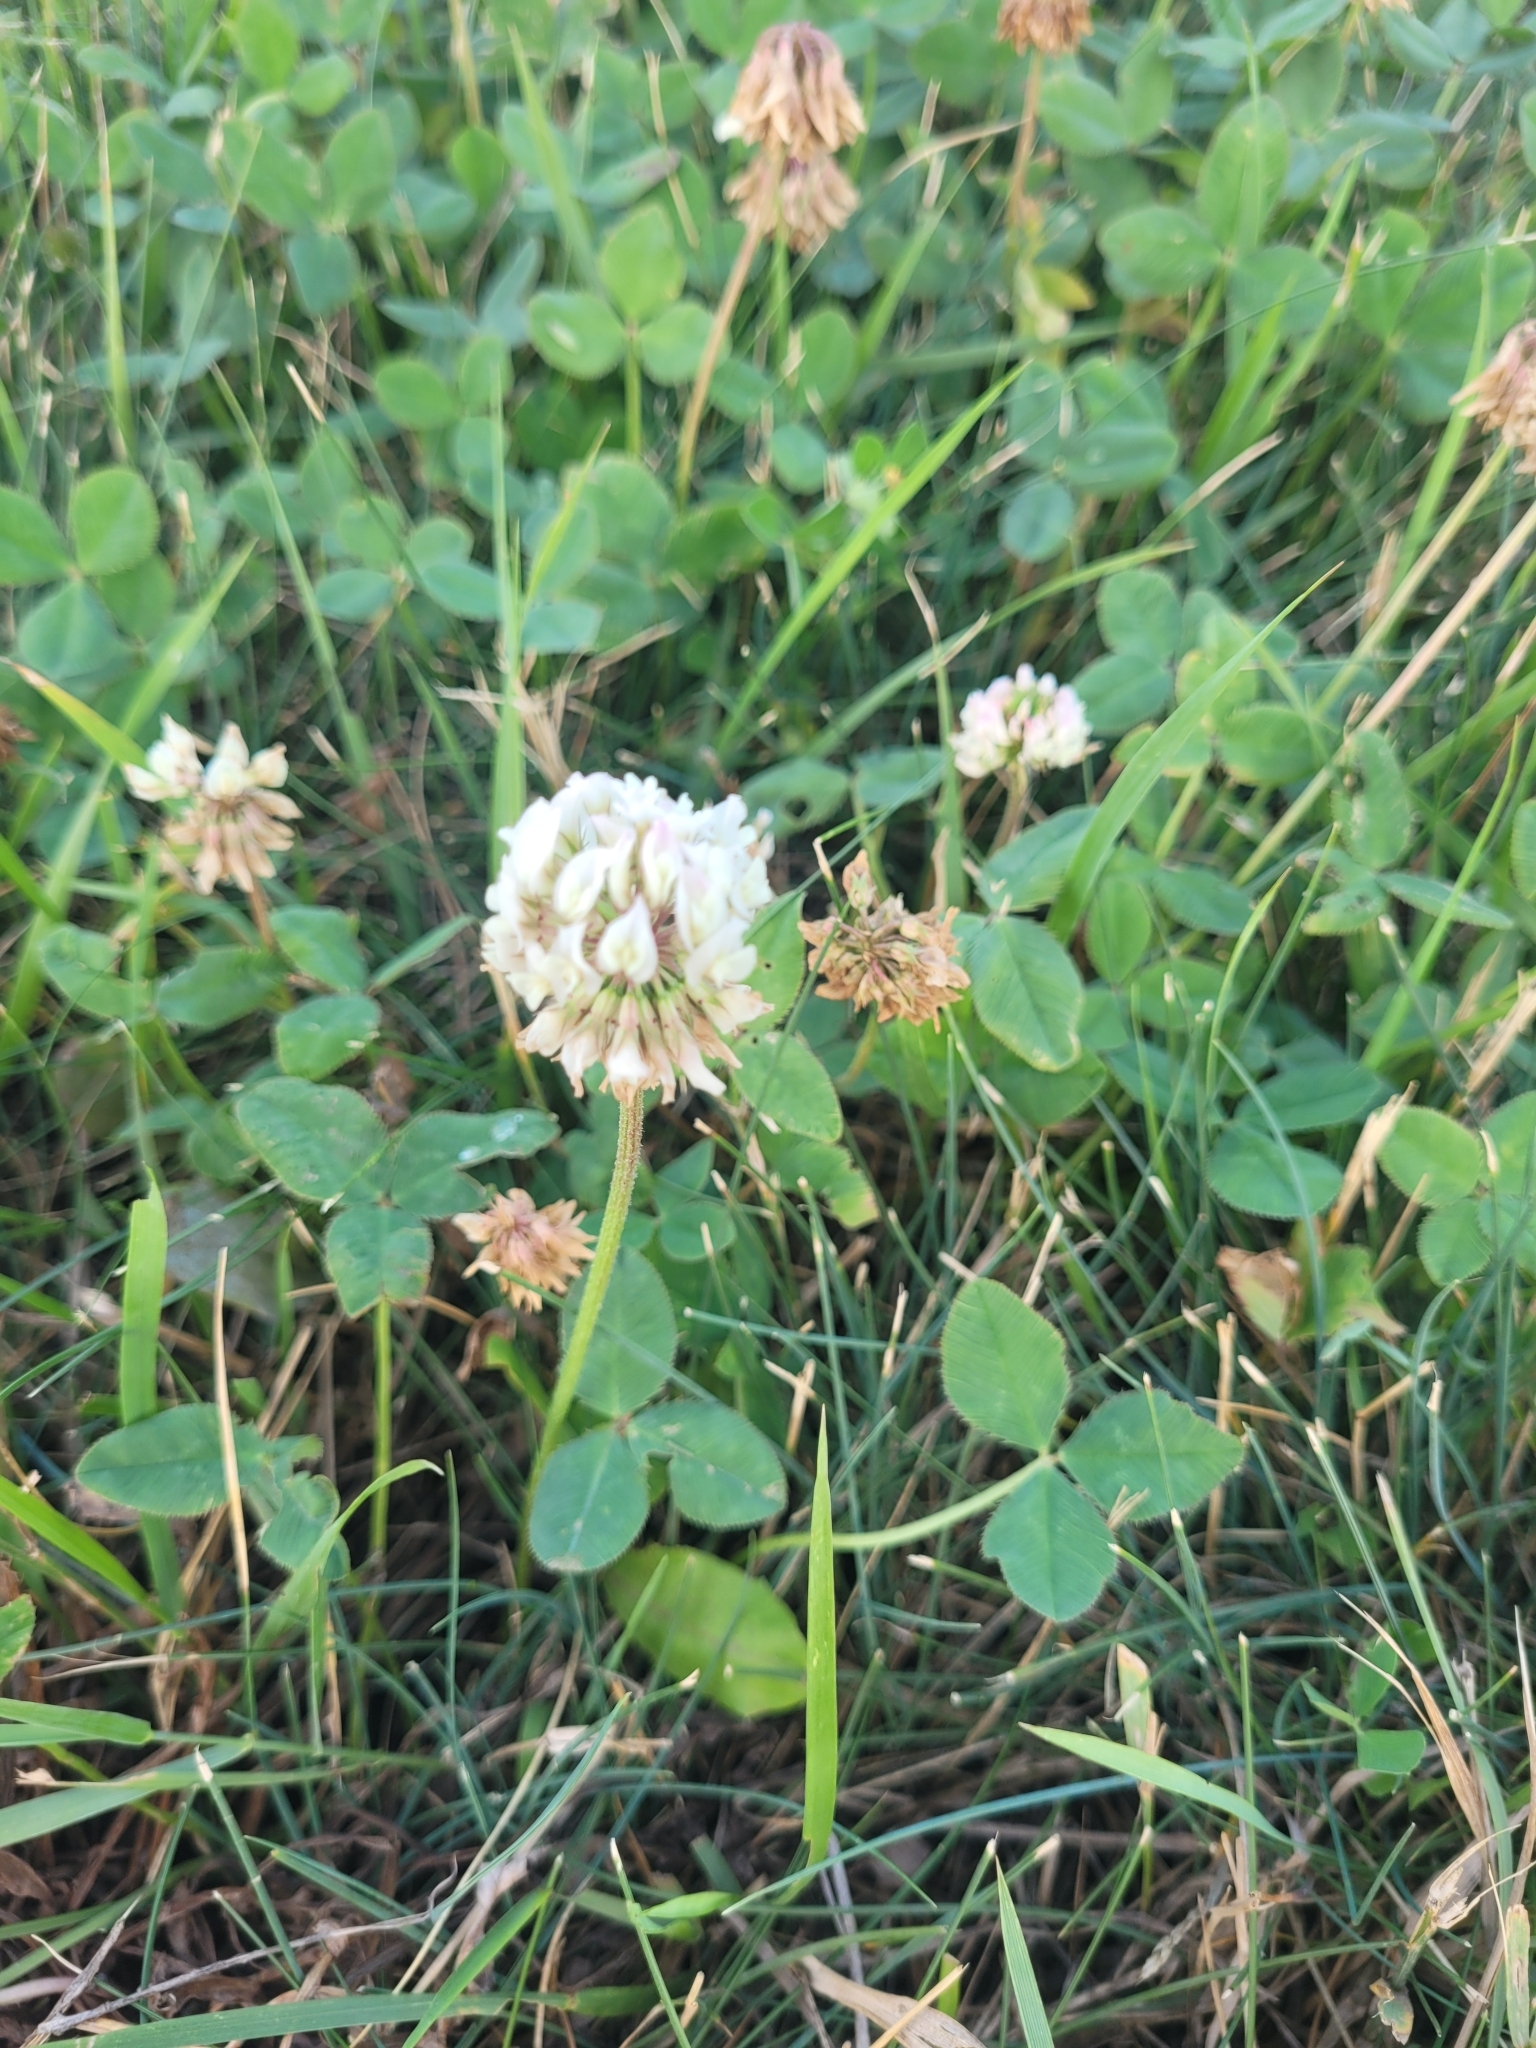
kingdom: Plantae
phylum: Tracheophyta
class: Magnoliopsida
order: Fabales
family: Fabaceae
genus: Trifolium
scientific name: Trifolium repens
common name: White clover
